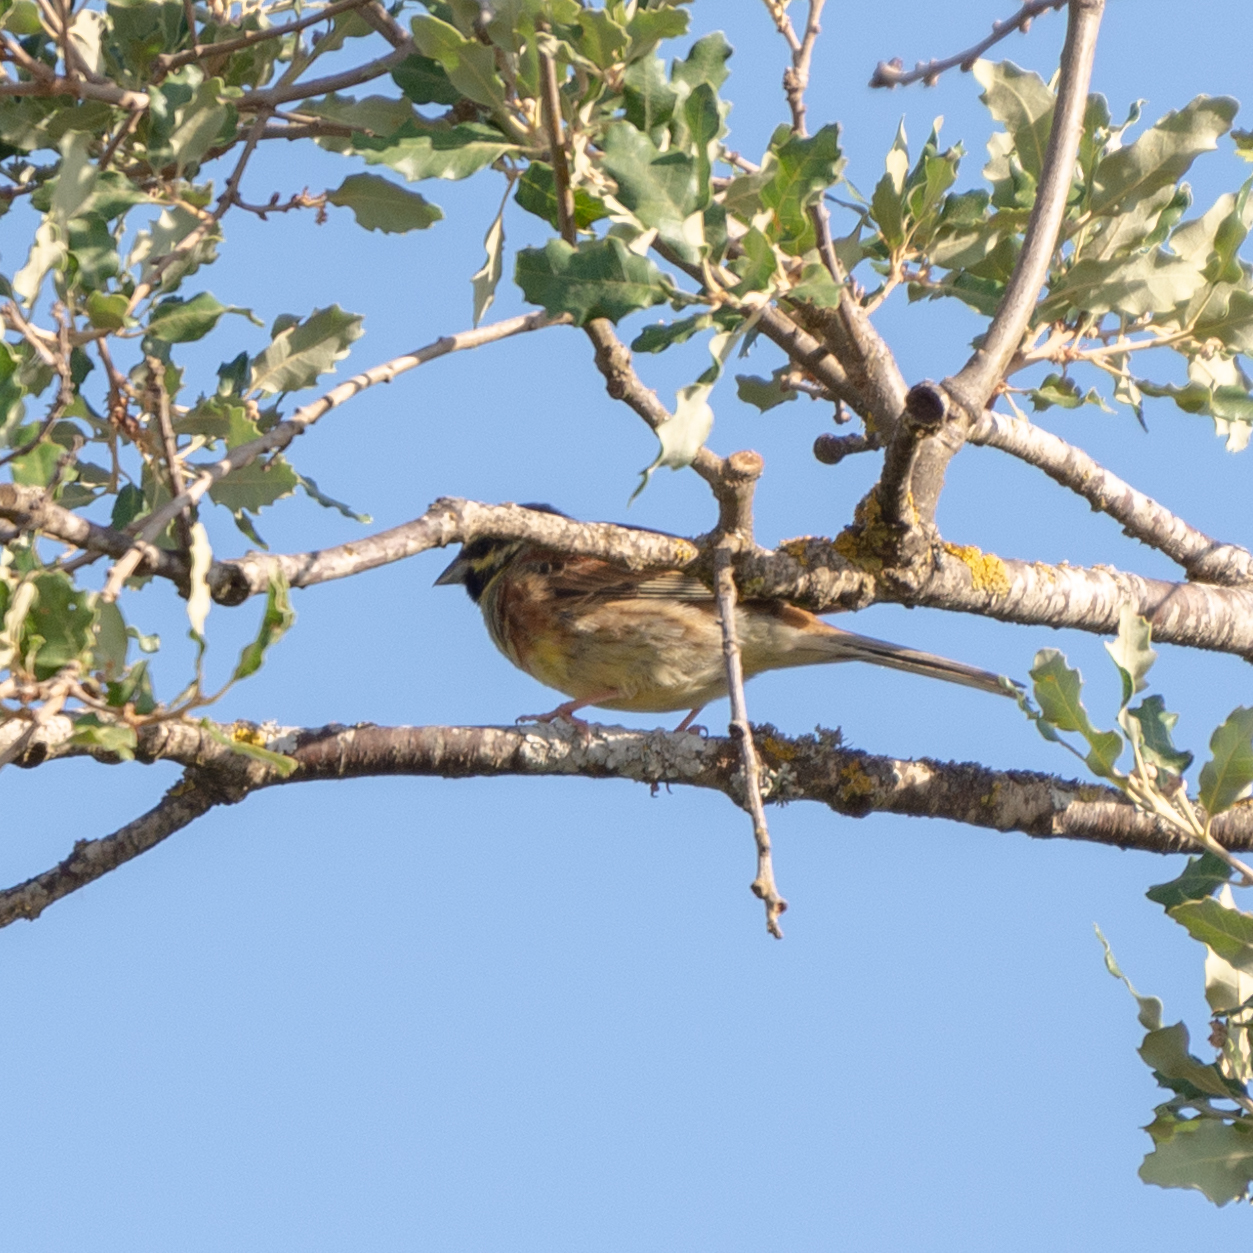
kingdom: Animalia
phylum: Chordata
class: Aves
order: Passeriformes
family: Emberizidae
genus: Emberiza
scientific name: Emberiza cirlus
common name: Cirl bunting
